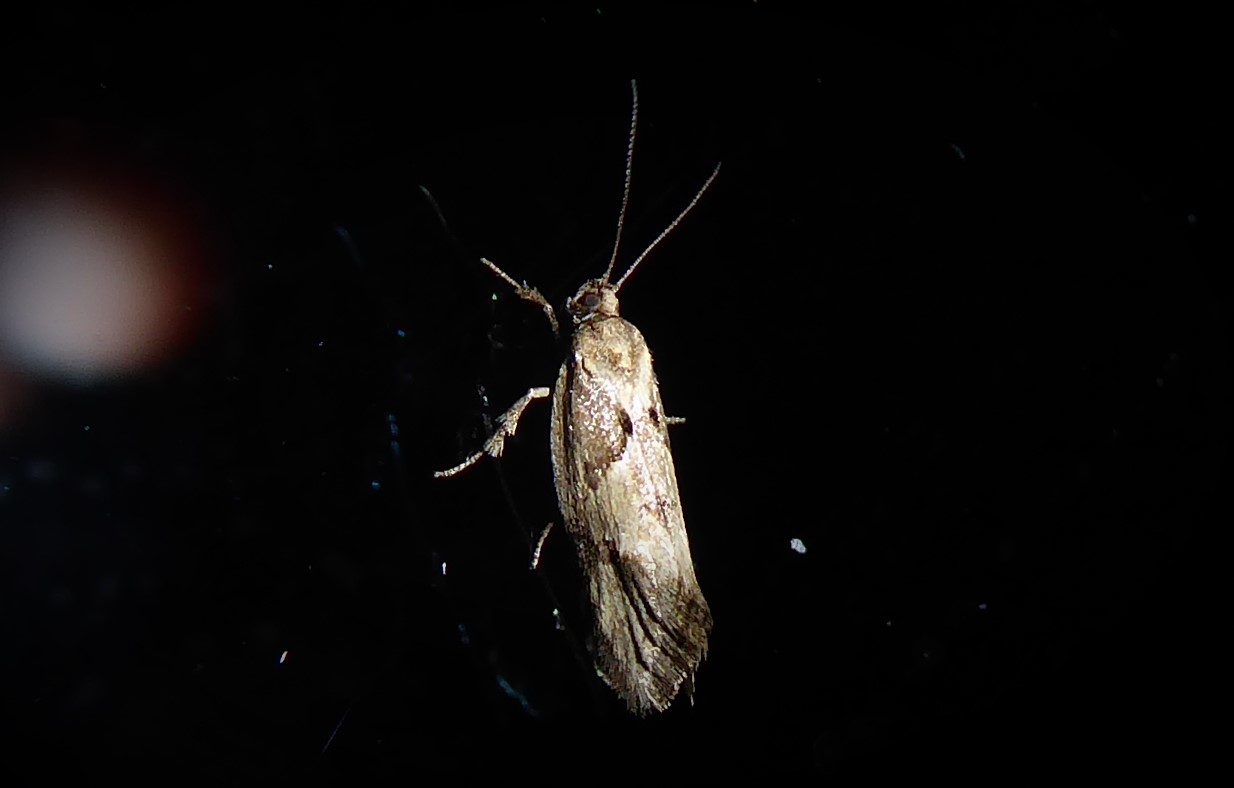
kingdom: Animalia
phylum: Arthropoda
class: Insecta
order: Lepidoptera
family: Oecophoridae
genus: Tingena
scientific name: Tingena brachyacma
